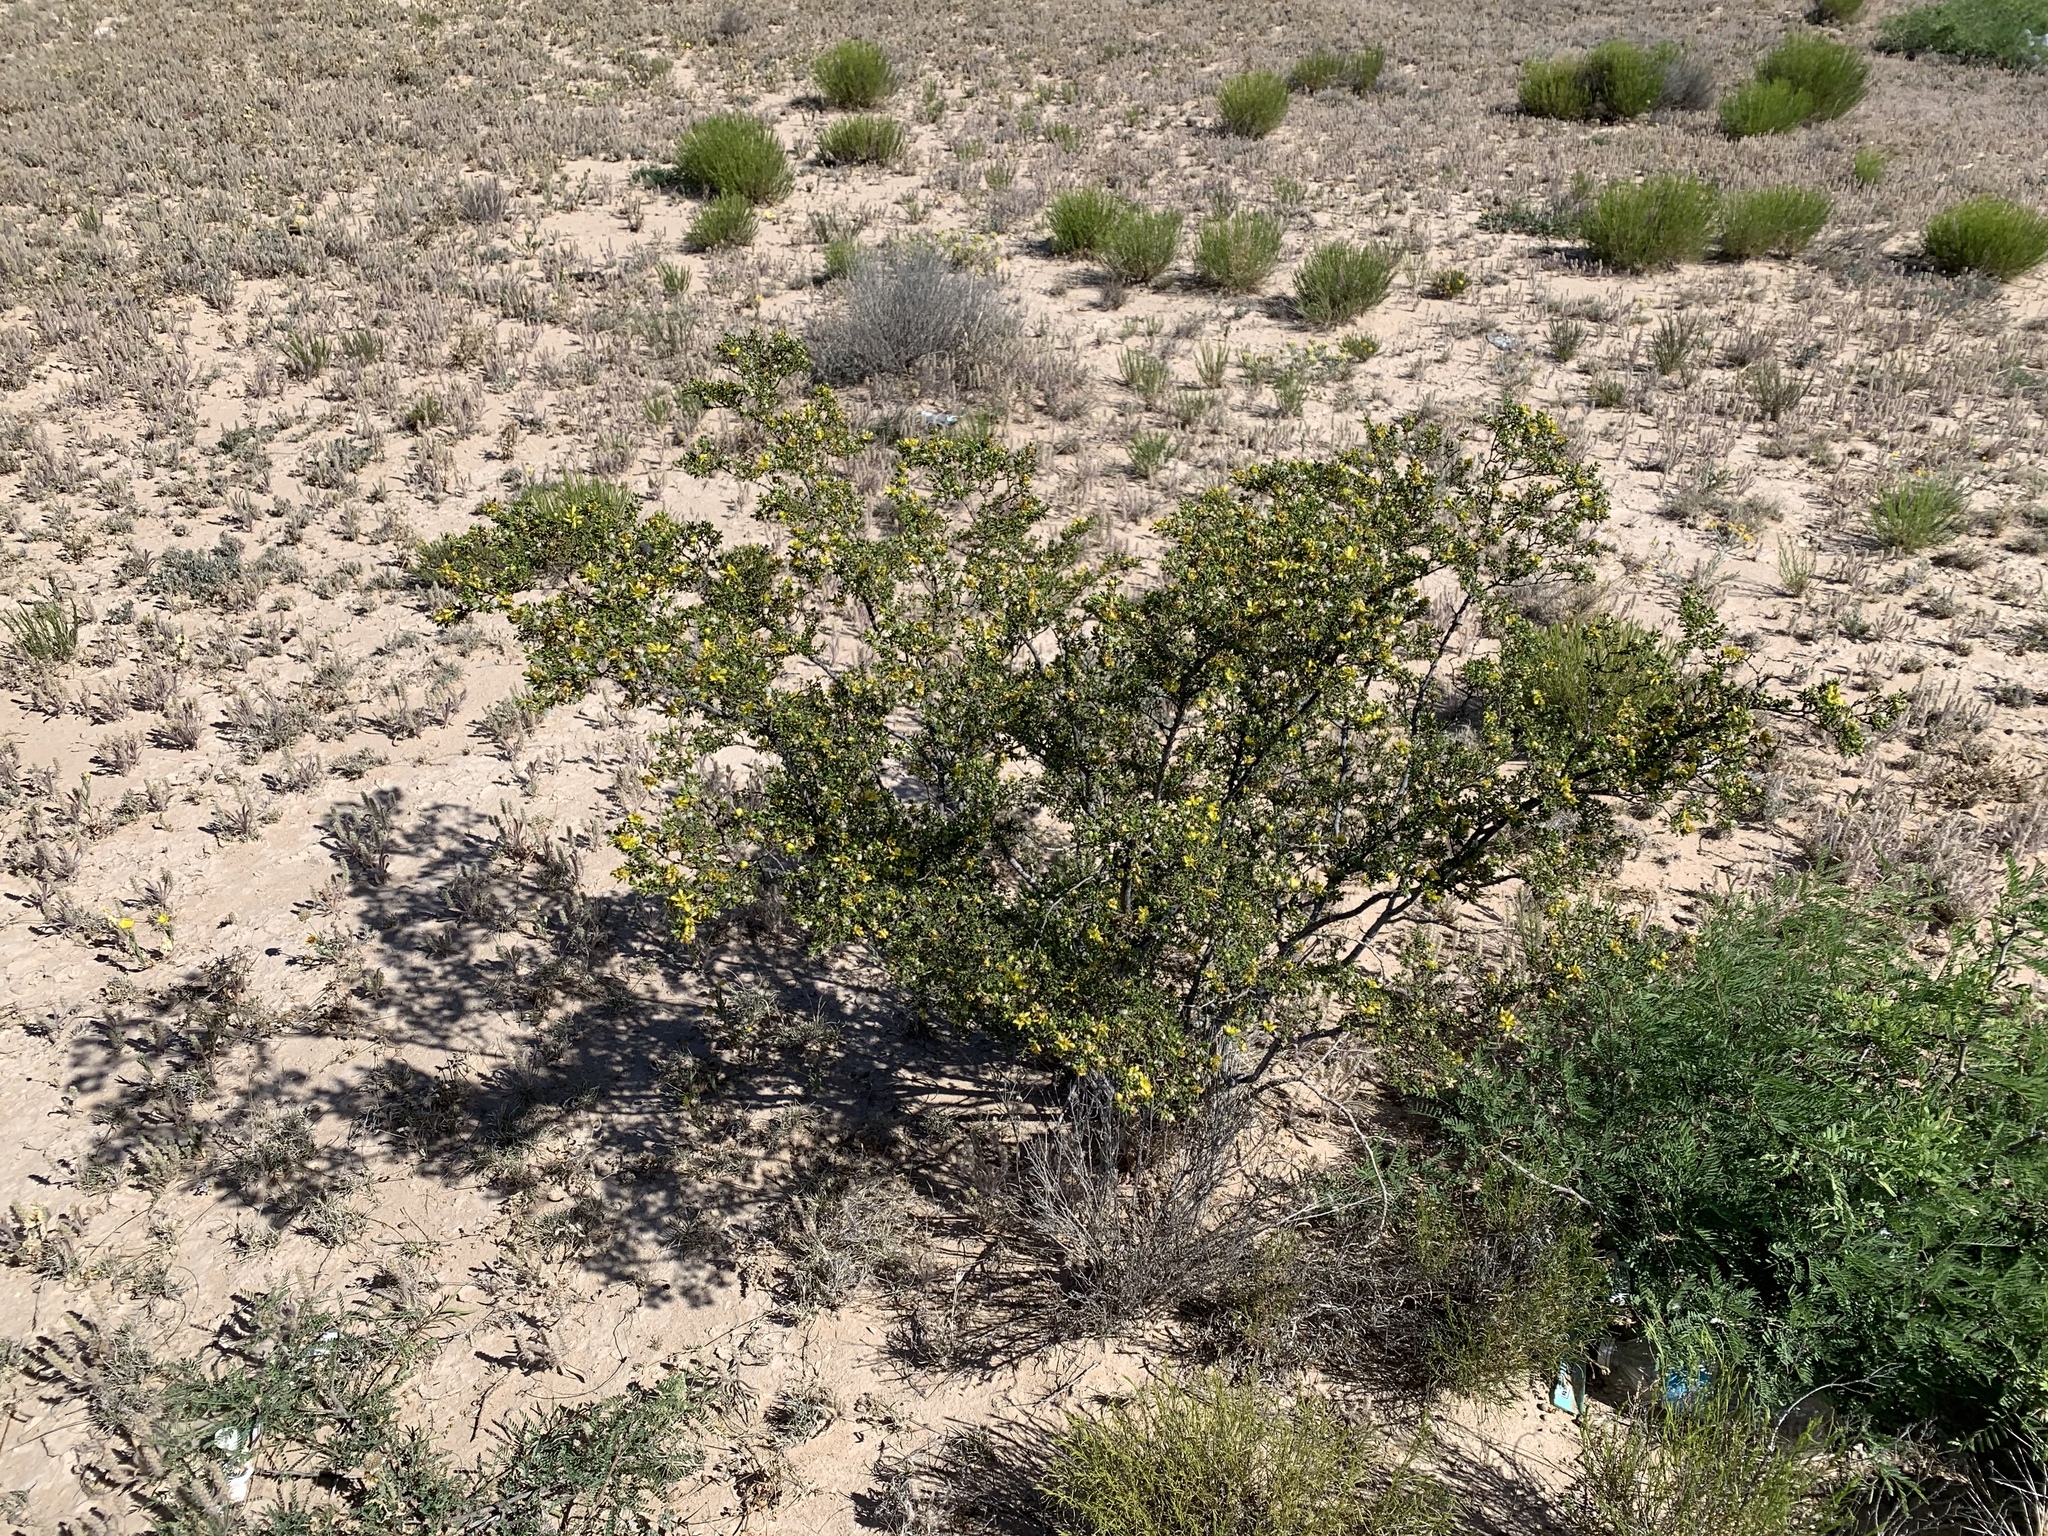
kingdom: Plantae
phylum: Tracheophyta
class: Magnoliopsida
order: Zygophyllales
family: Zygophyllaceae
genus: Larrea
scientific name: Larrea tridentata
